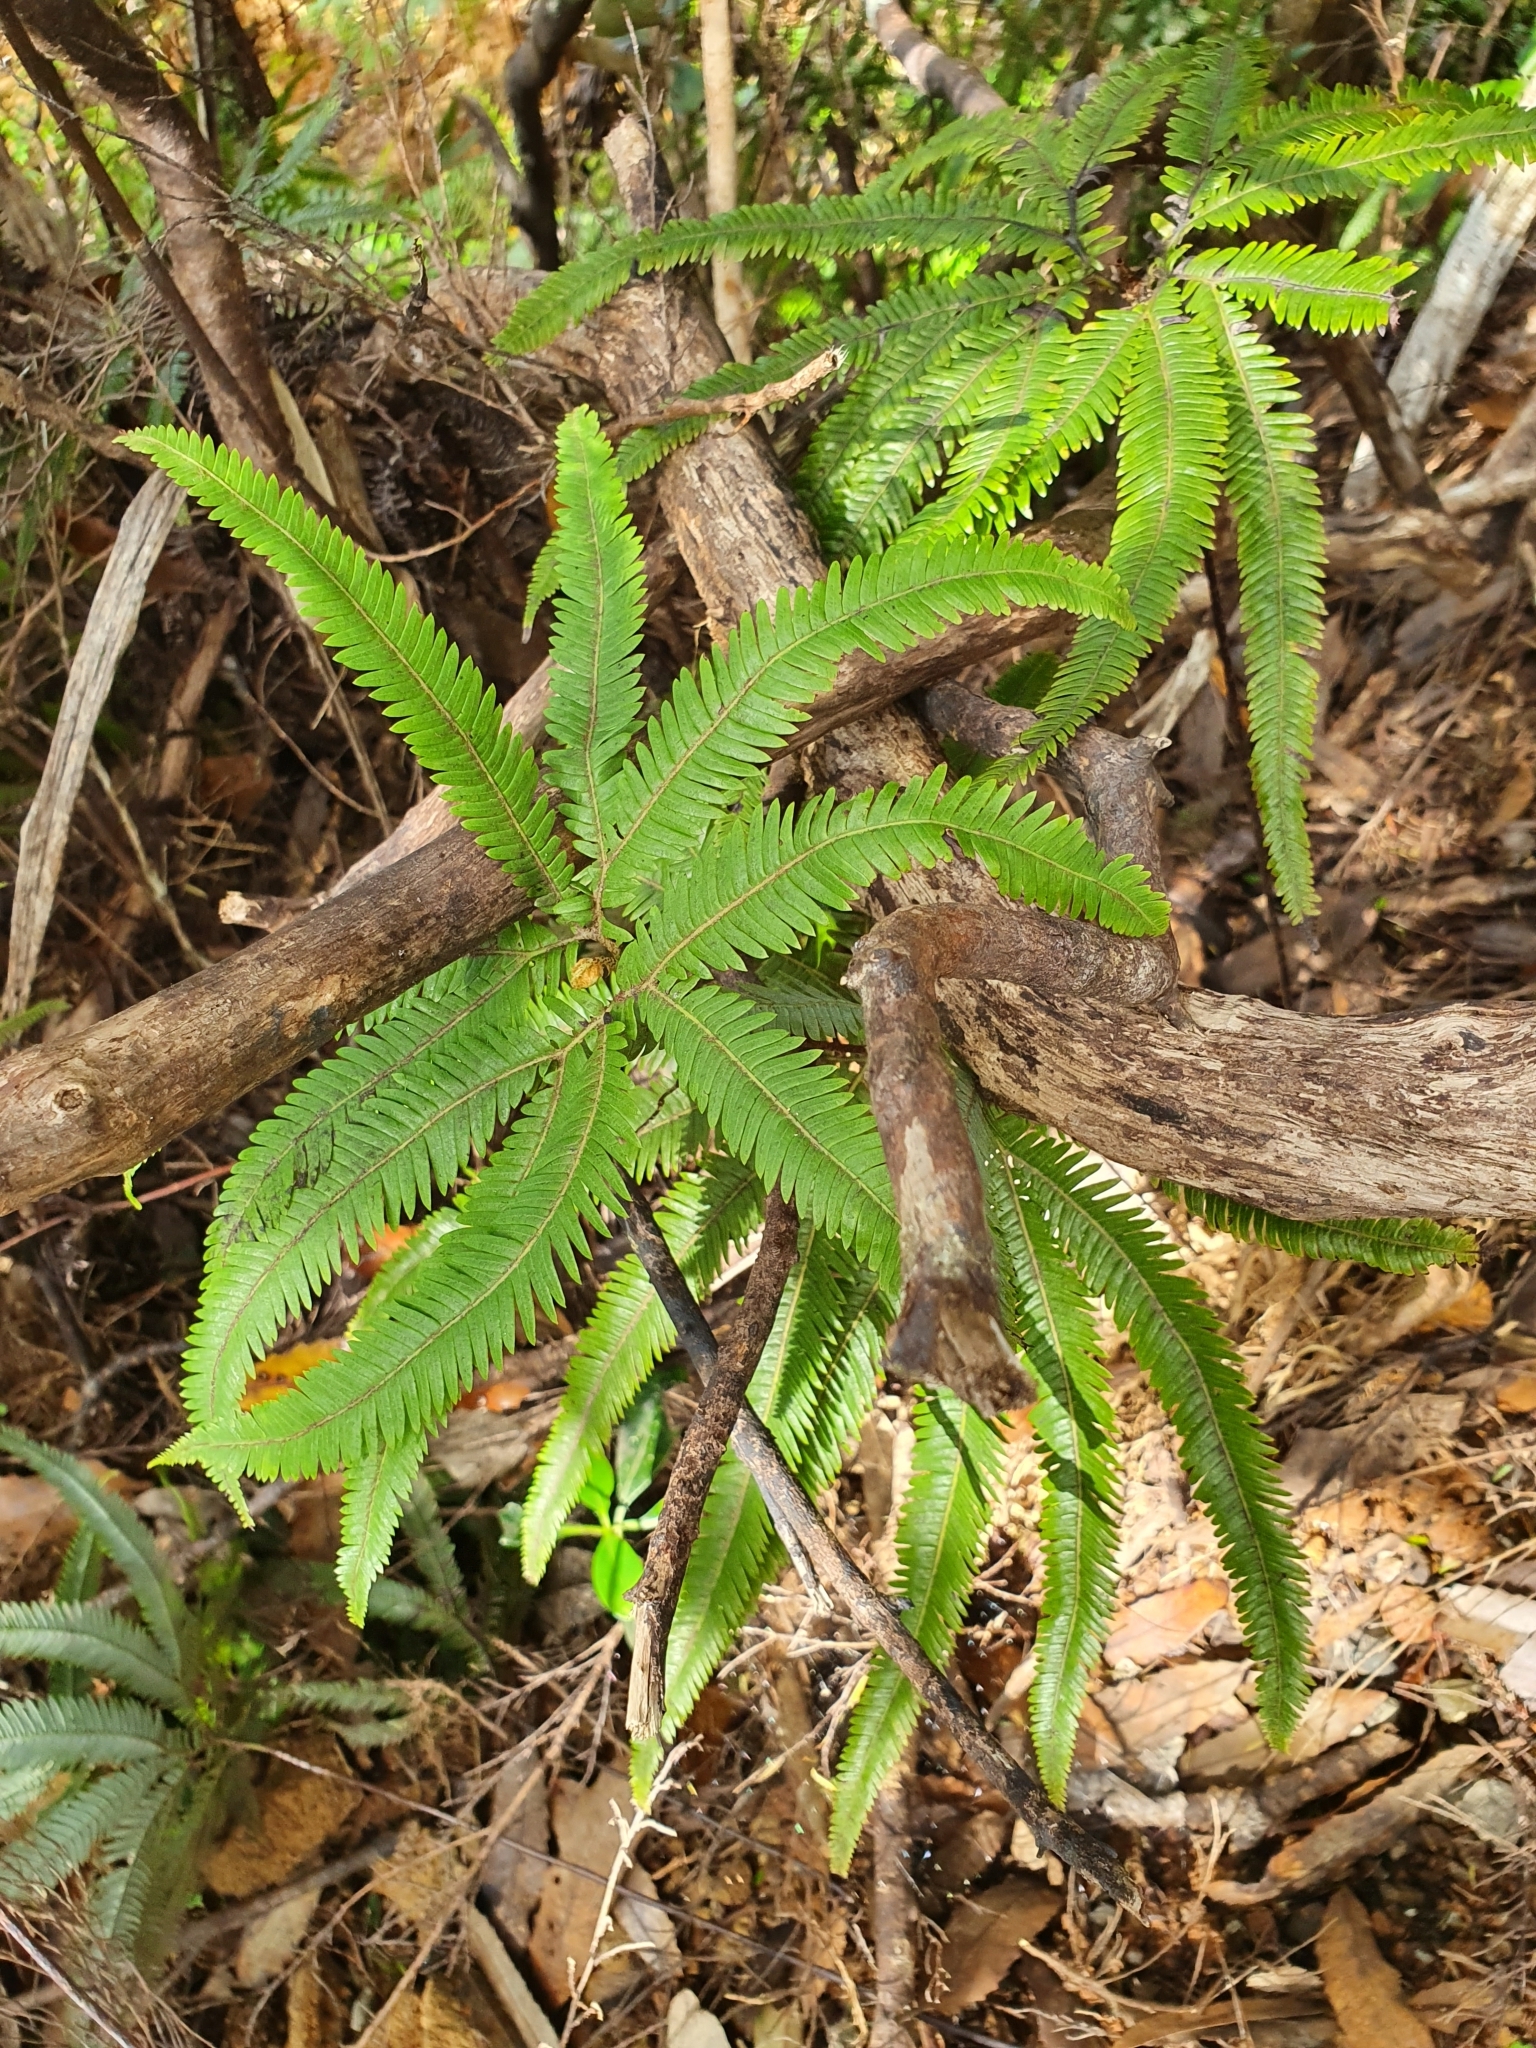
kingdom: Plantae
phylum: Tracheophyta
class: Polypodiopsida
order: Gleicheniales
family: Gleicheniaceae
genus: Sticherus
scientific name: Sticherus cunninghamii
